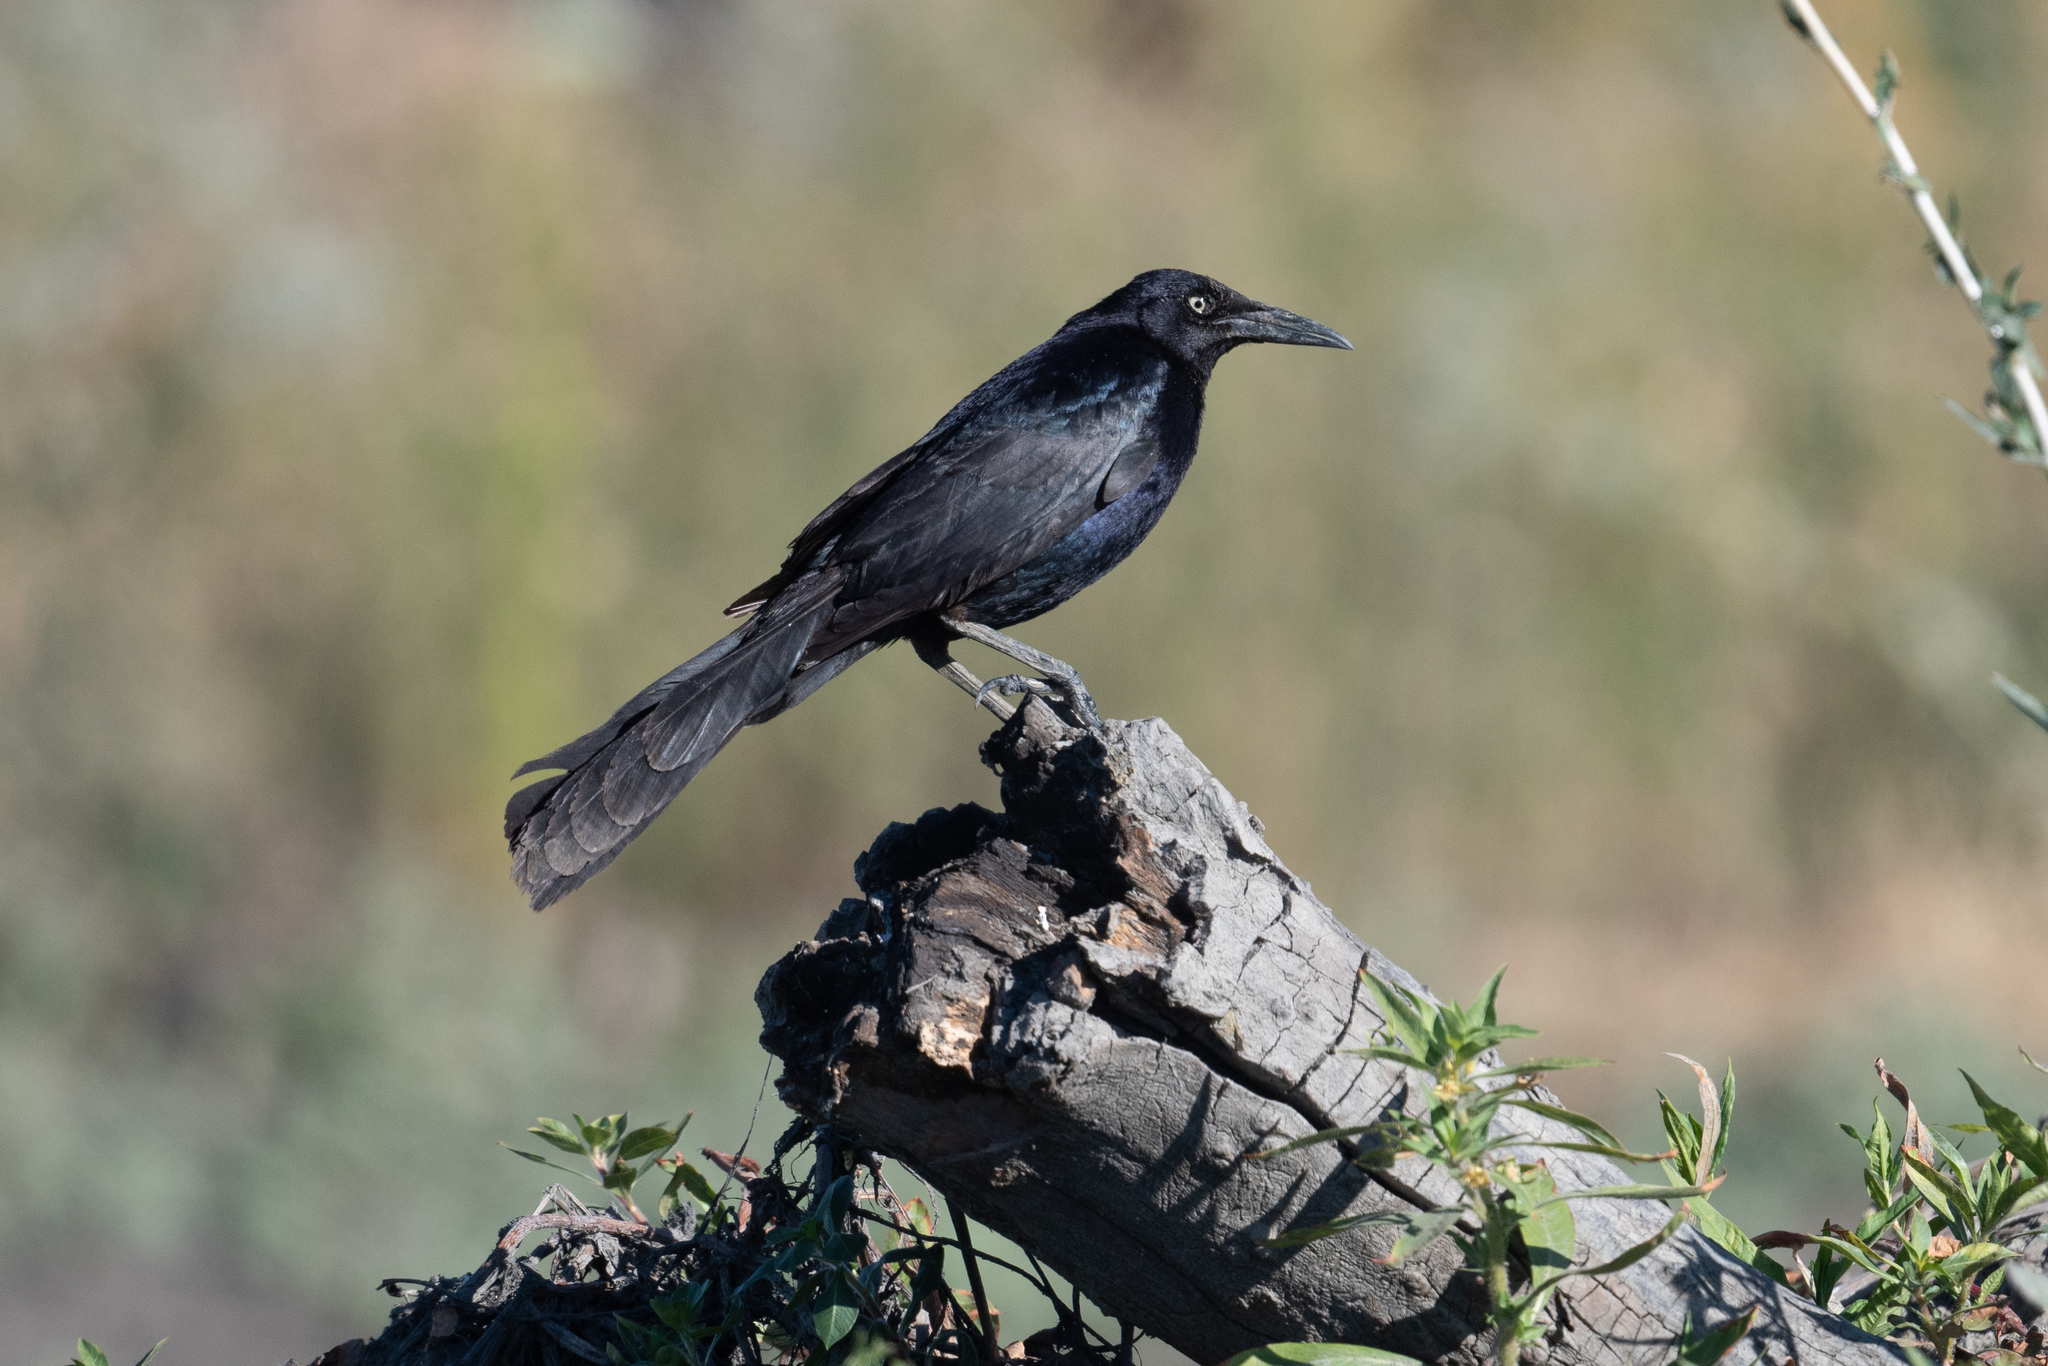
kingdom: Animalia
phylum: Chordata
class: Aves
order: Passeriformes
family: Icteridae
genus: Quiscalus
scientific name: Quiscalus mexicanus
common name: Great-tailed grackle
